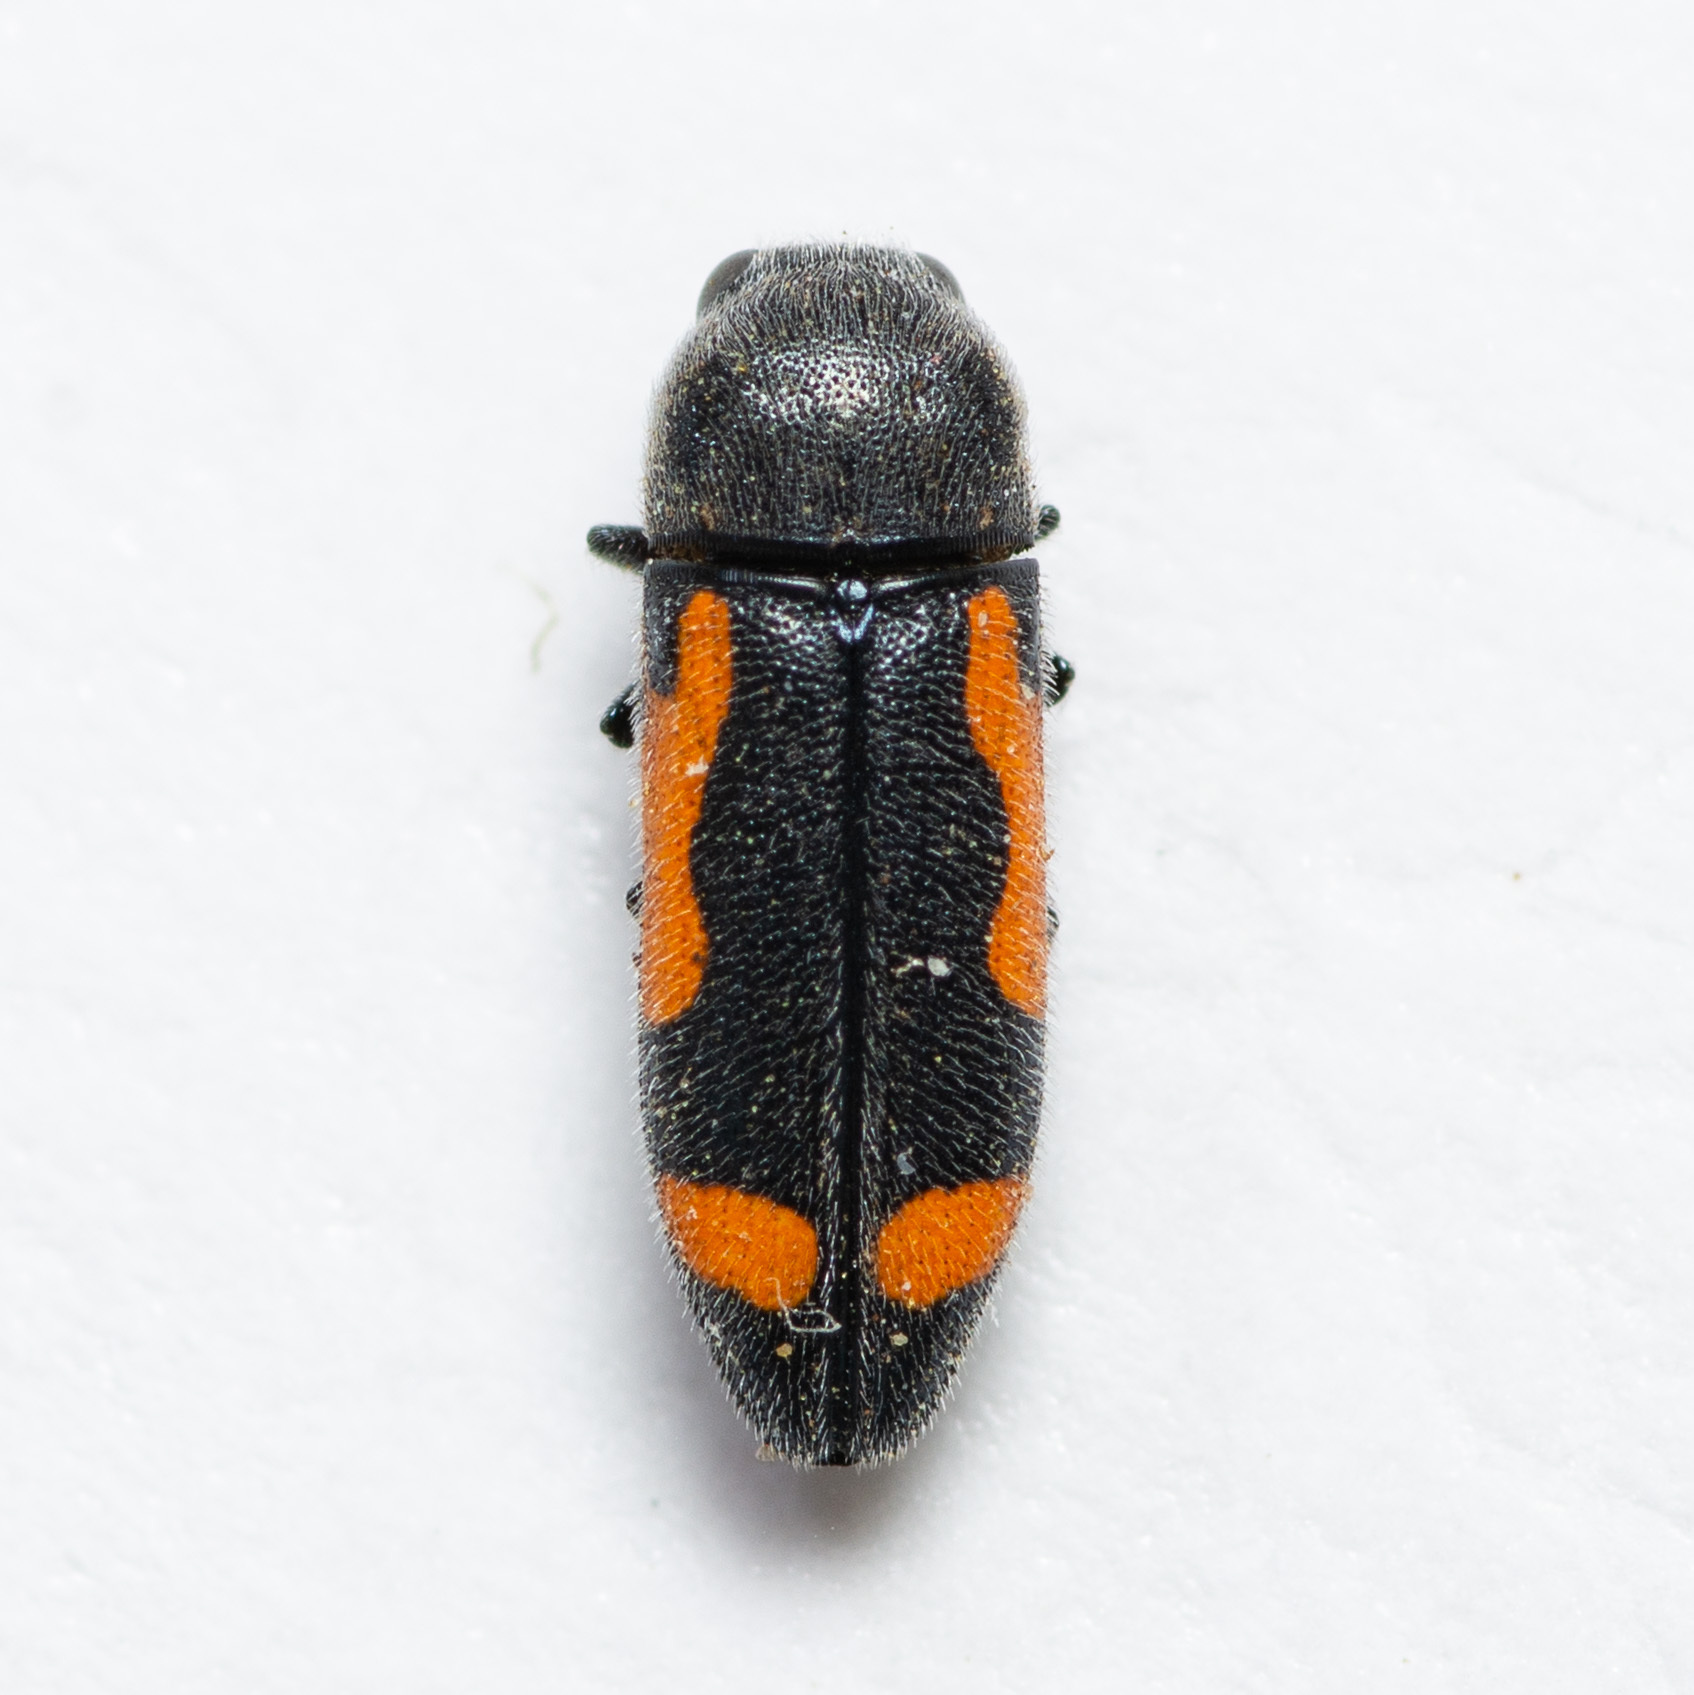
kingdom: Animalia
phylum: Arthropoda
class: Insecta
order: Coleoptera
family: Buprestidae
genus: Ptosima
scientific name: Ptosima laeta
